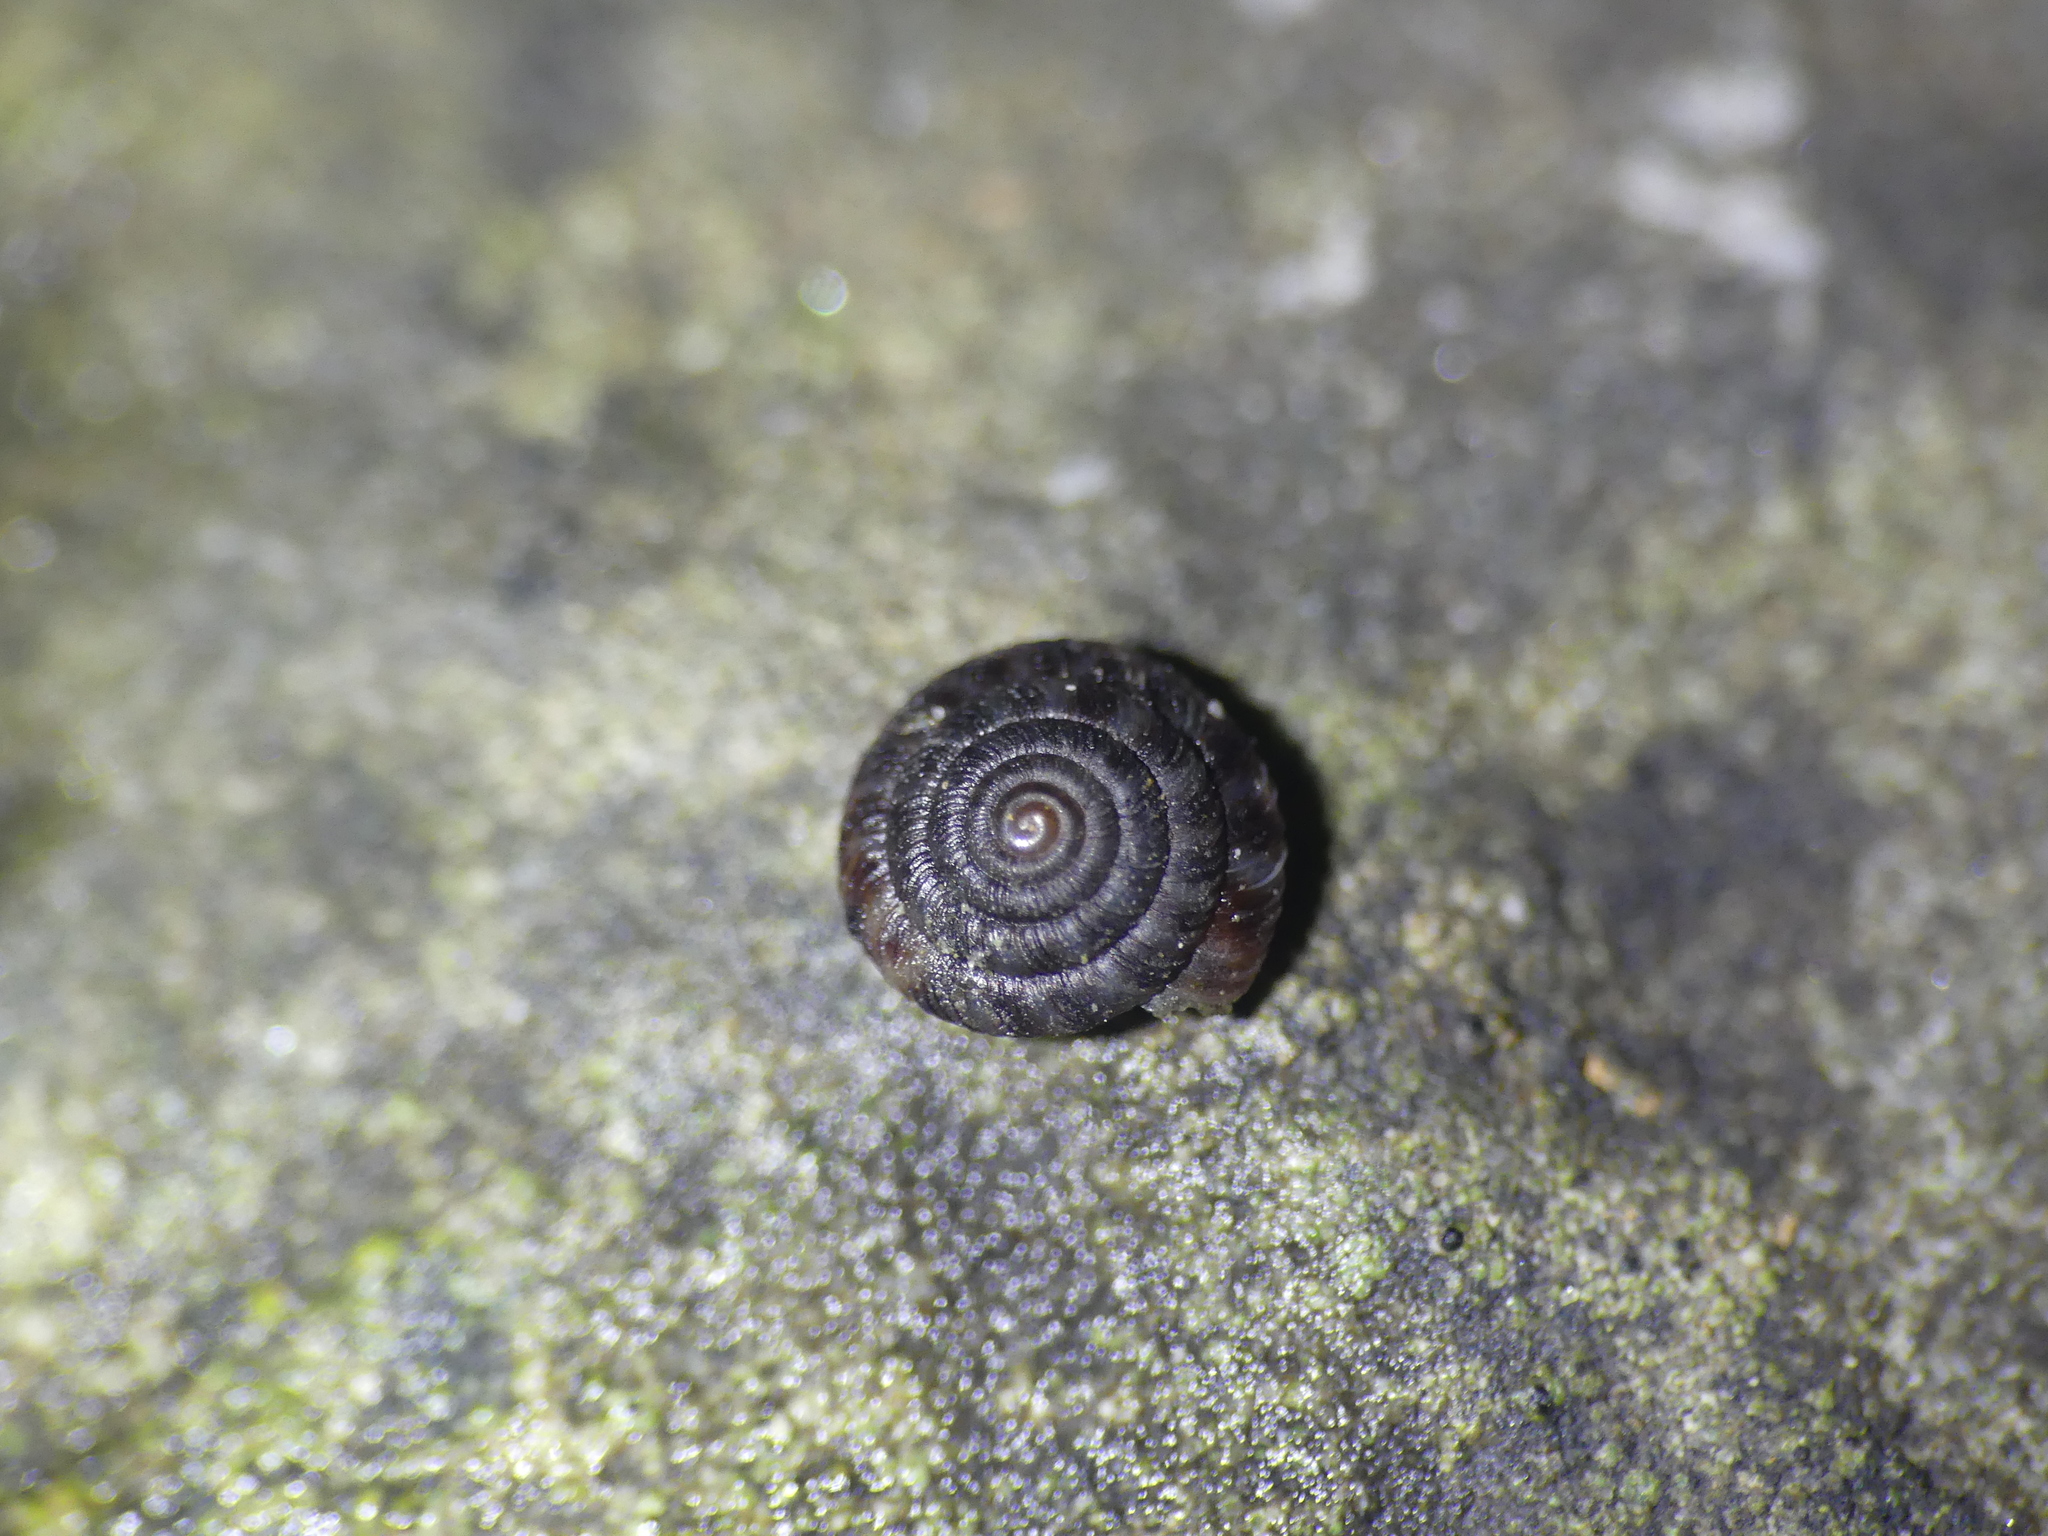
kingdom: Animalia
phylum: Mollusca
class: Gastropoda
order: Stylommatophora
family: Discidae
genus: Discus
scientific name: Discus rotundatus
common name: Rounded snail
